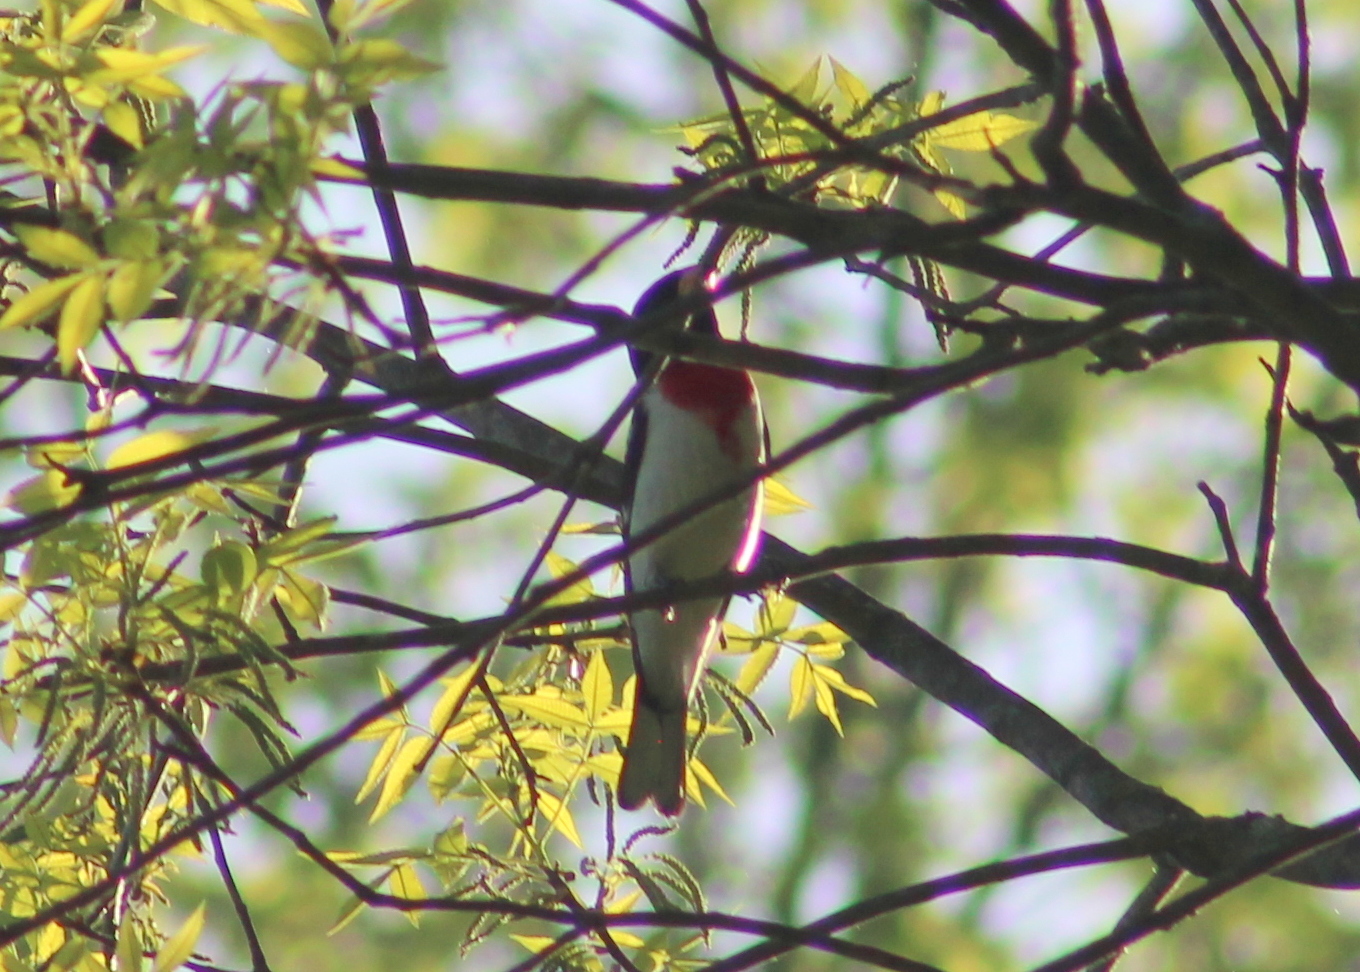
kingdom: Animalia
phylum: Chordata
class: Aves
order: Passeriformes
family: Cardinalidae
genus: Pheucticus
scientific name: Pheucticus ludovicianus
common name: Rose-breasted grosbeak
